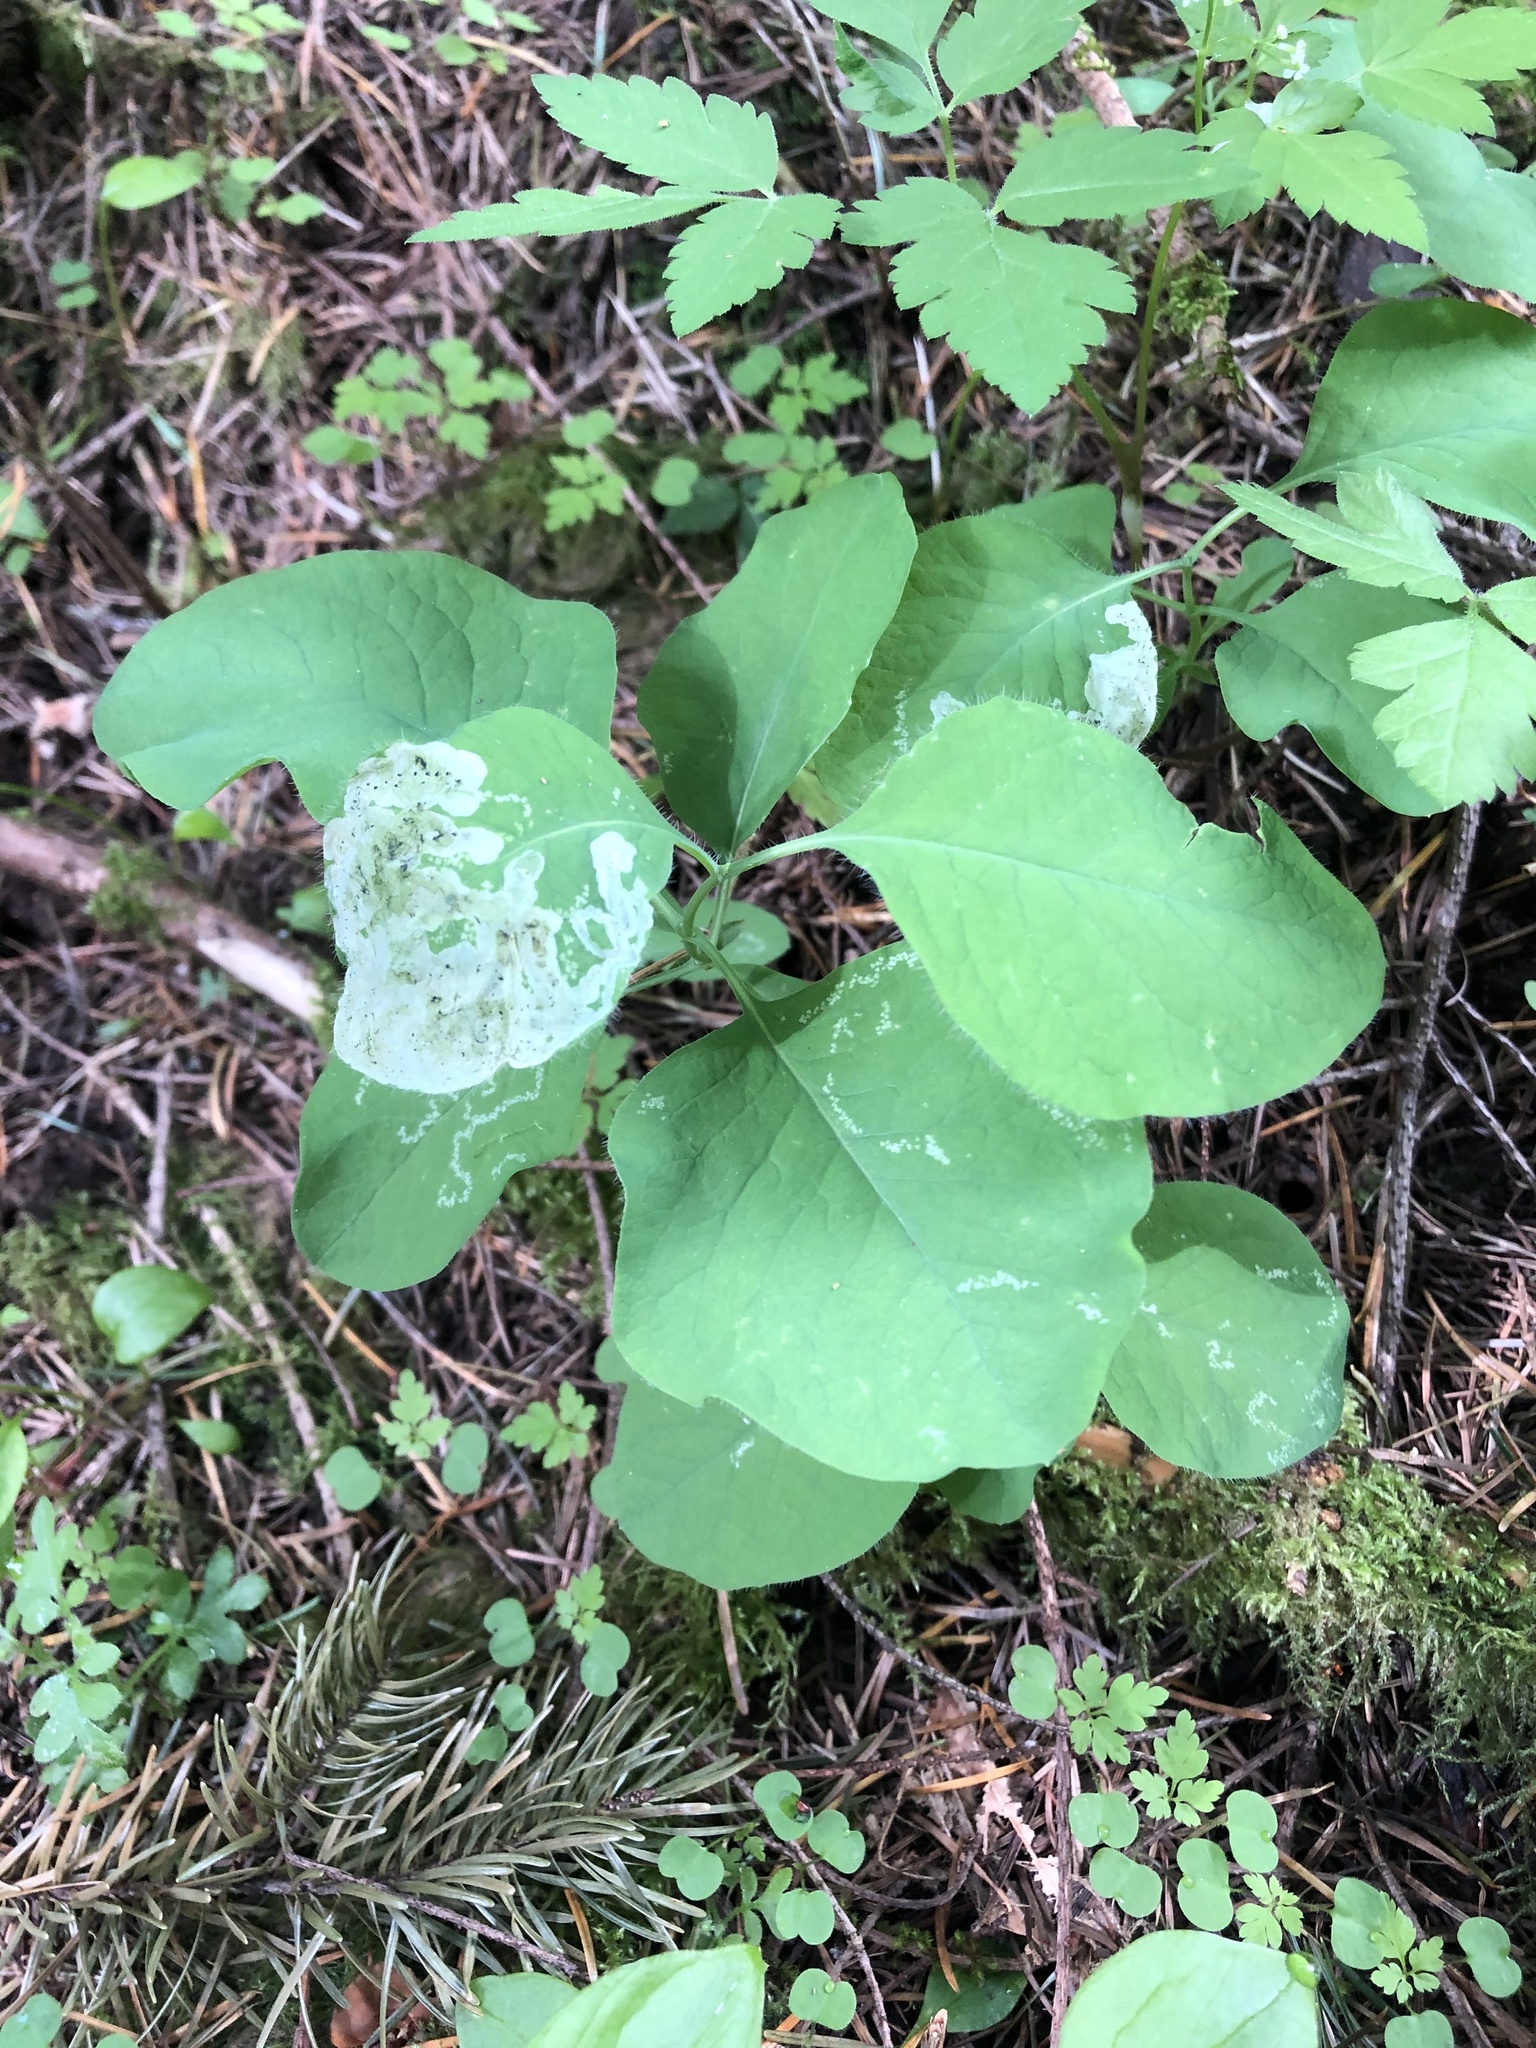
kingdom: Plantae
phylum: Tracheophyta
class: Magnoliopsida
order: Dipsacales
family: Caprifoliaceae
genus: Lonicera
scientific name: Lonicera ciliosa
